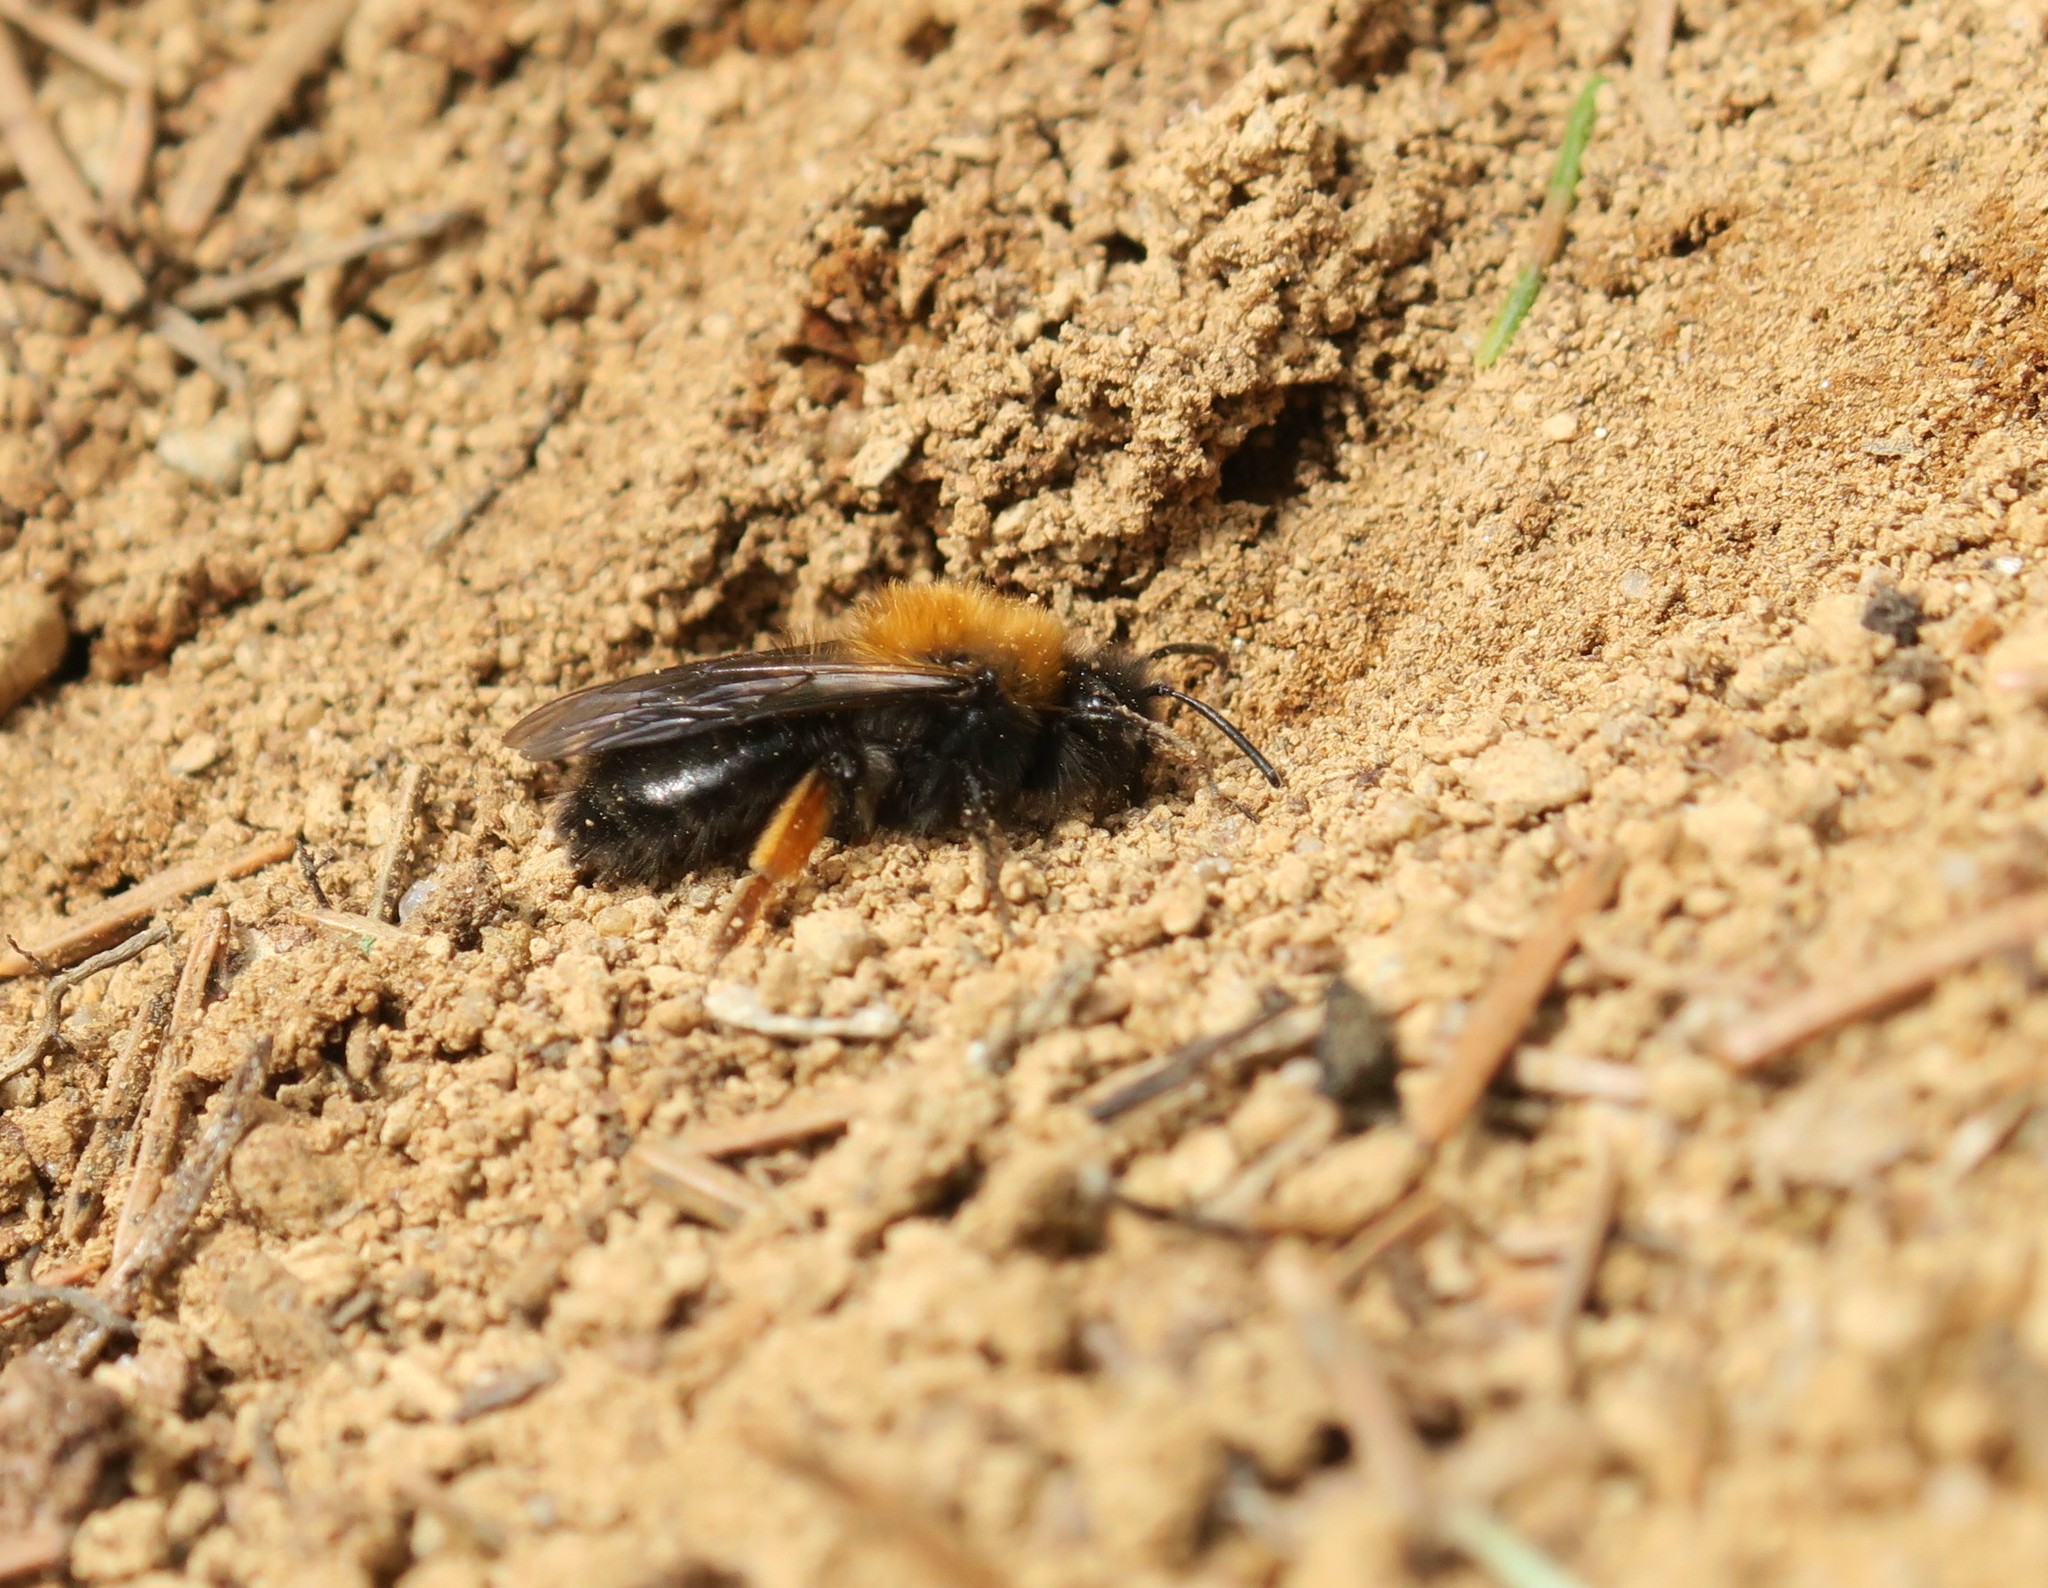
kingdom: Animalia
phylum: Arthropoda
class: Insecta
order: Hymenoptera
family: Andrenidae
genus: Andrena
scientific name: Andrena clarkella
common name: Clarke's mining bee
